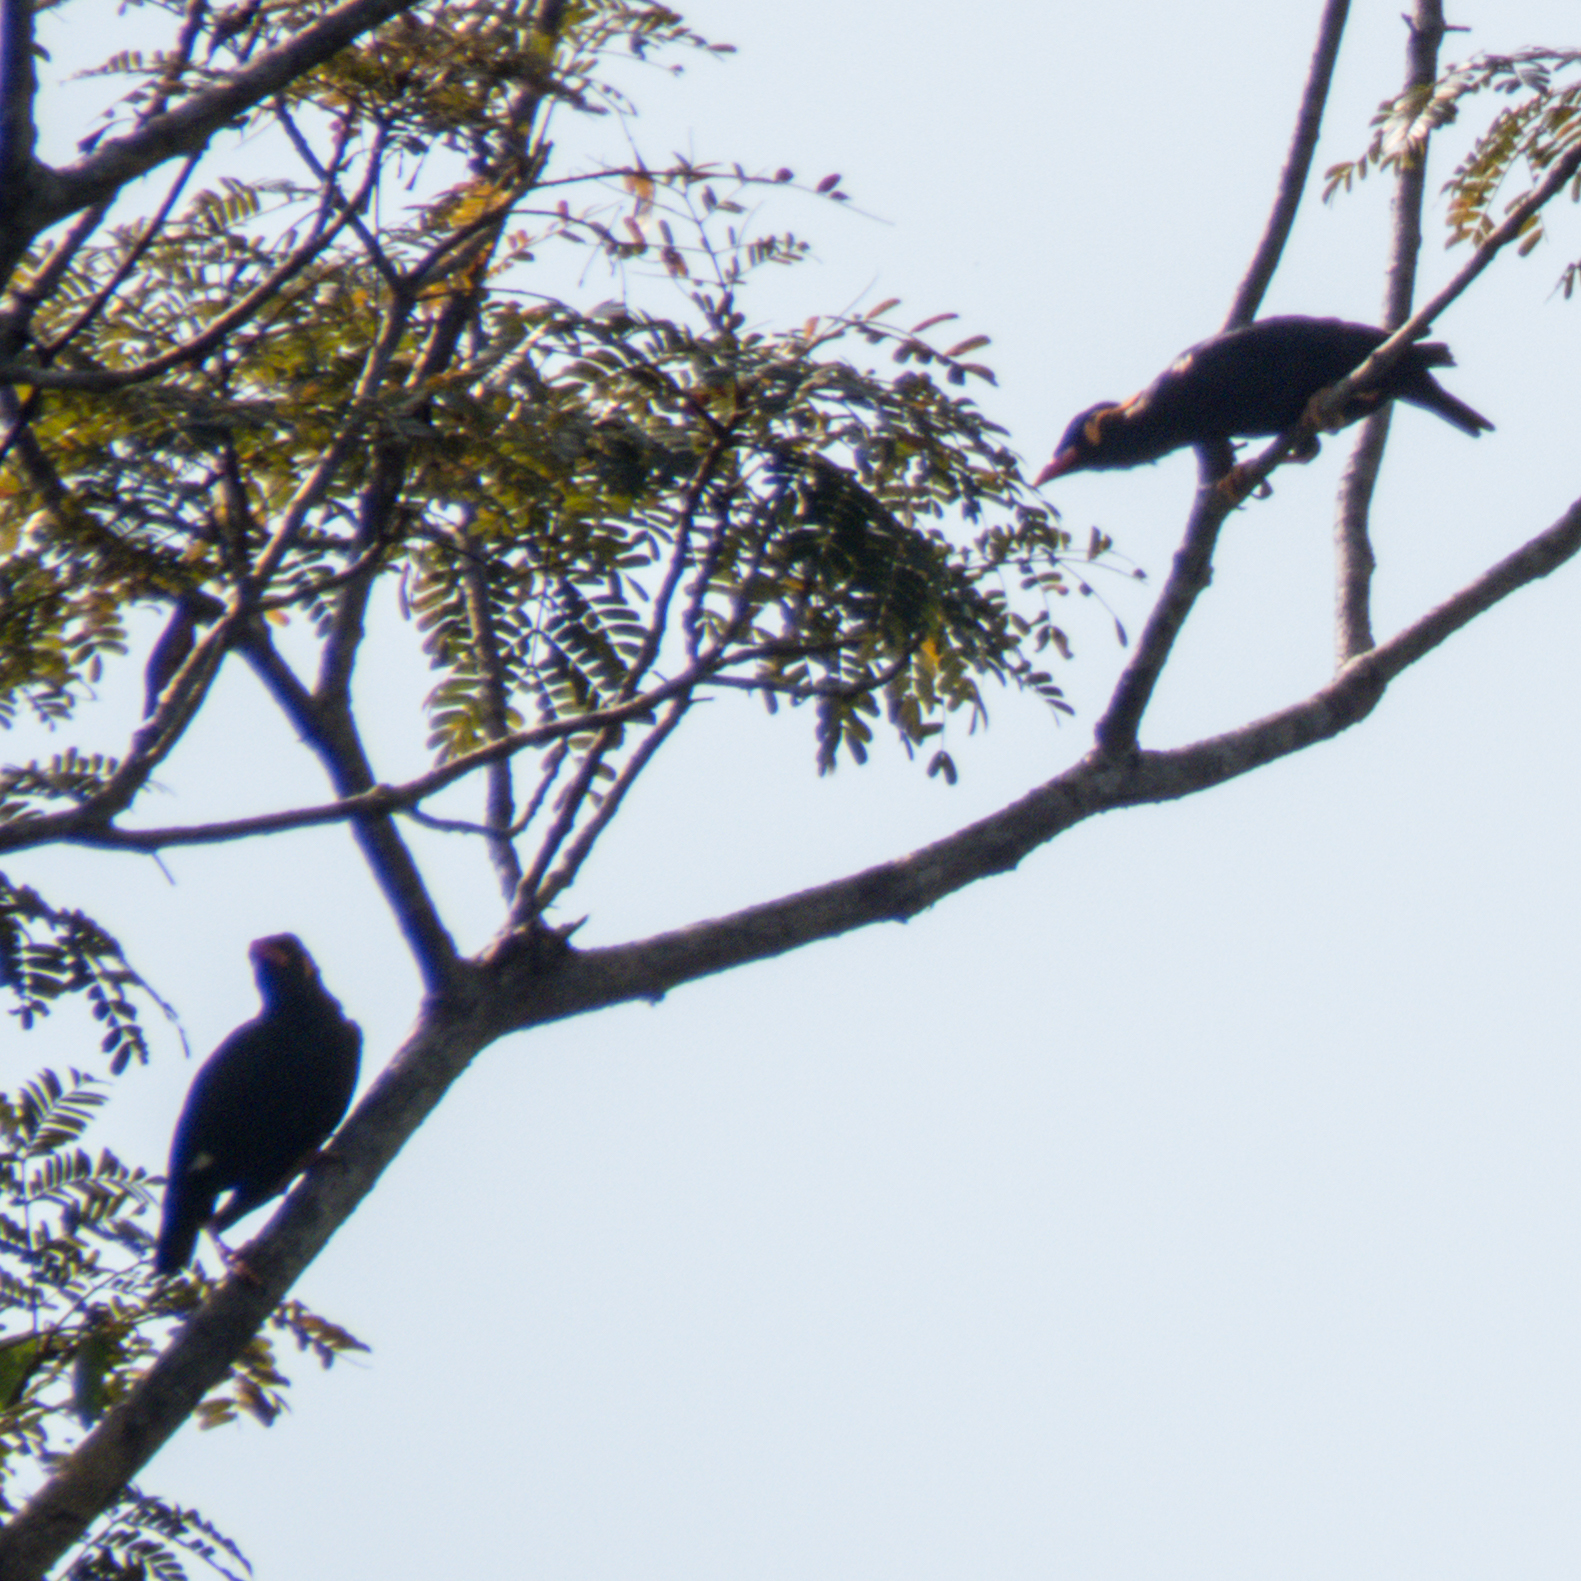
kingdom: Animalia
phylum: Chordata
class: Aves
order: Passeriformes
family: Sturnidae
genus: Gracula
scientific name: Gracula religiosa
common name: Common hill myna
